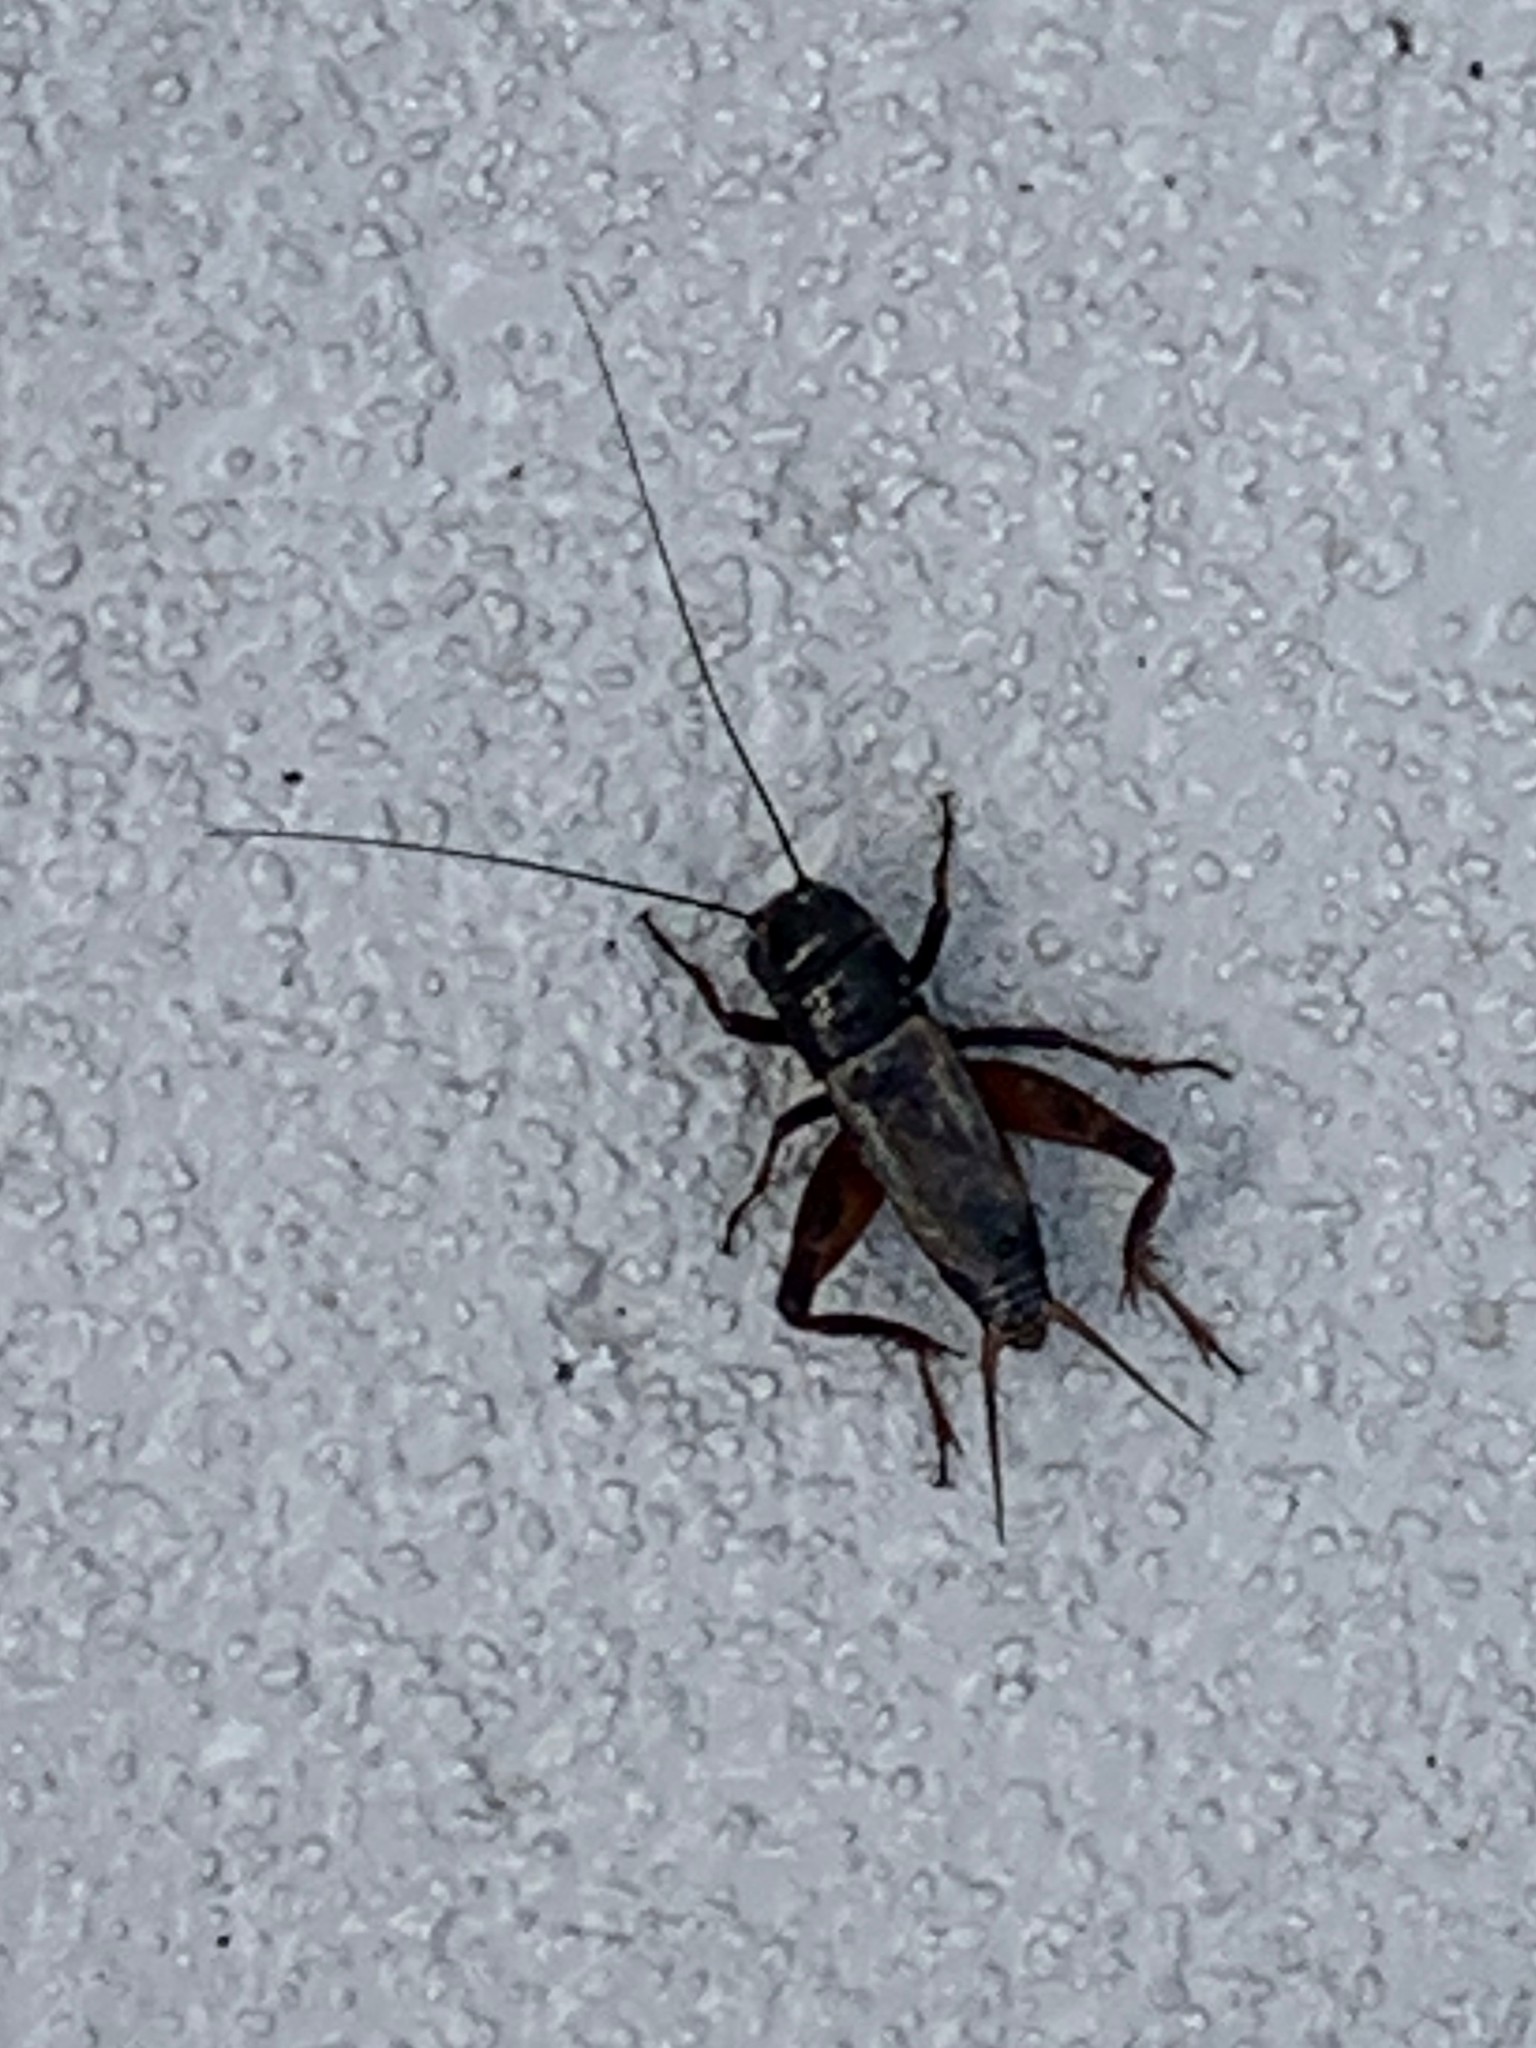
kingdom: Animalia
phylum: Arthropoda
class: Insecta
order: Orthoptera
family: Gryllidae
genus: Gryllus
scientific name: Gryllus pennsylvanicus
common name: Fall field cricket
